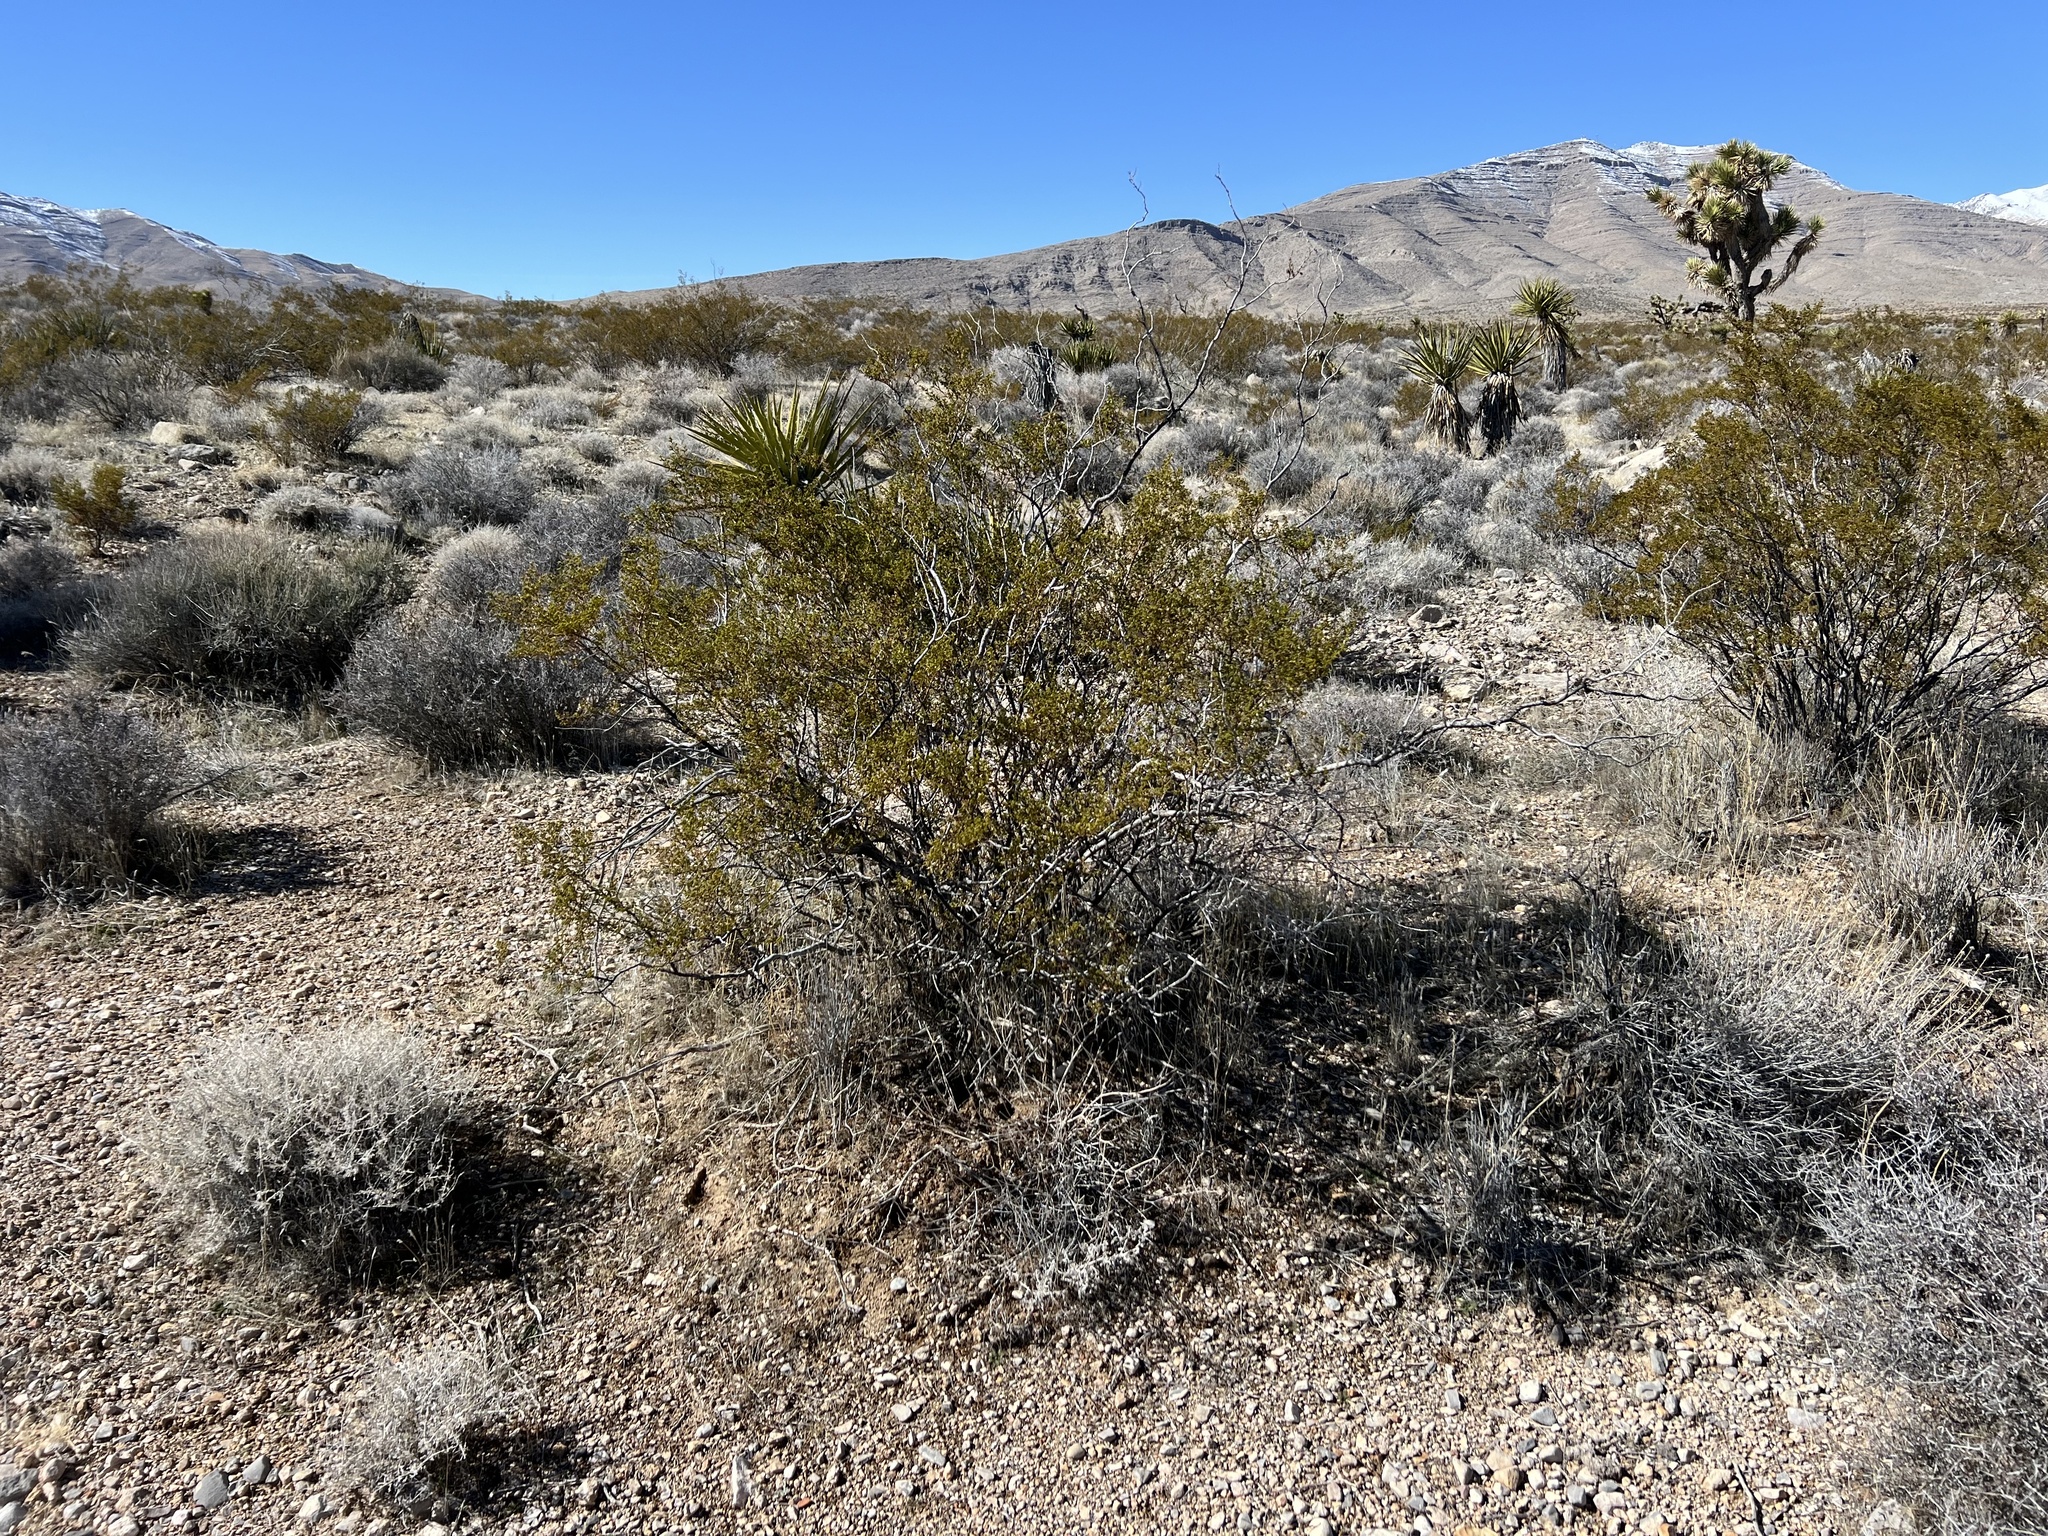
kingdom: Plantae
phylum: Tracheophyta
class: Magnoliopsida
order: Zygophyllales
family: Zygophyllaceae
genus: Larrea
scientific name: Larrea tridentata
